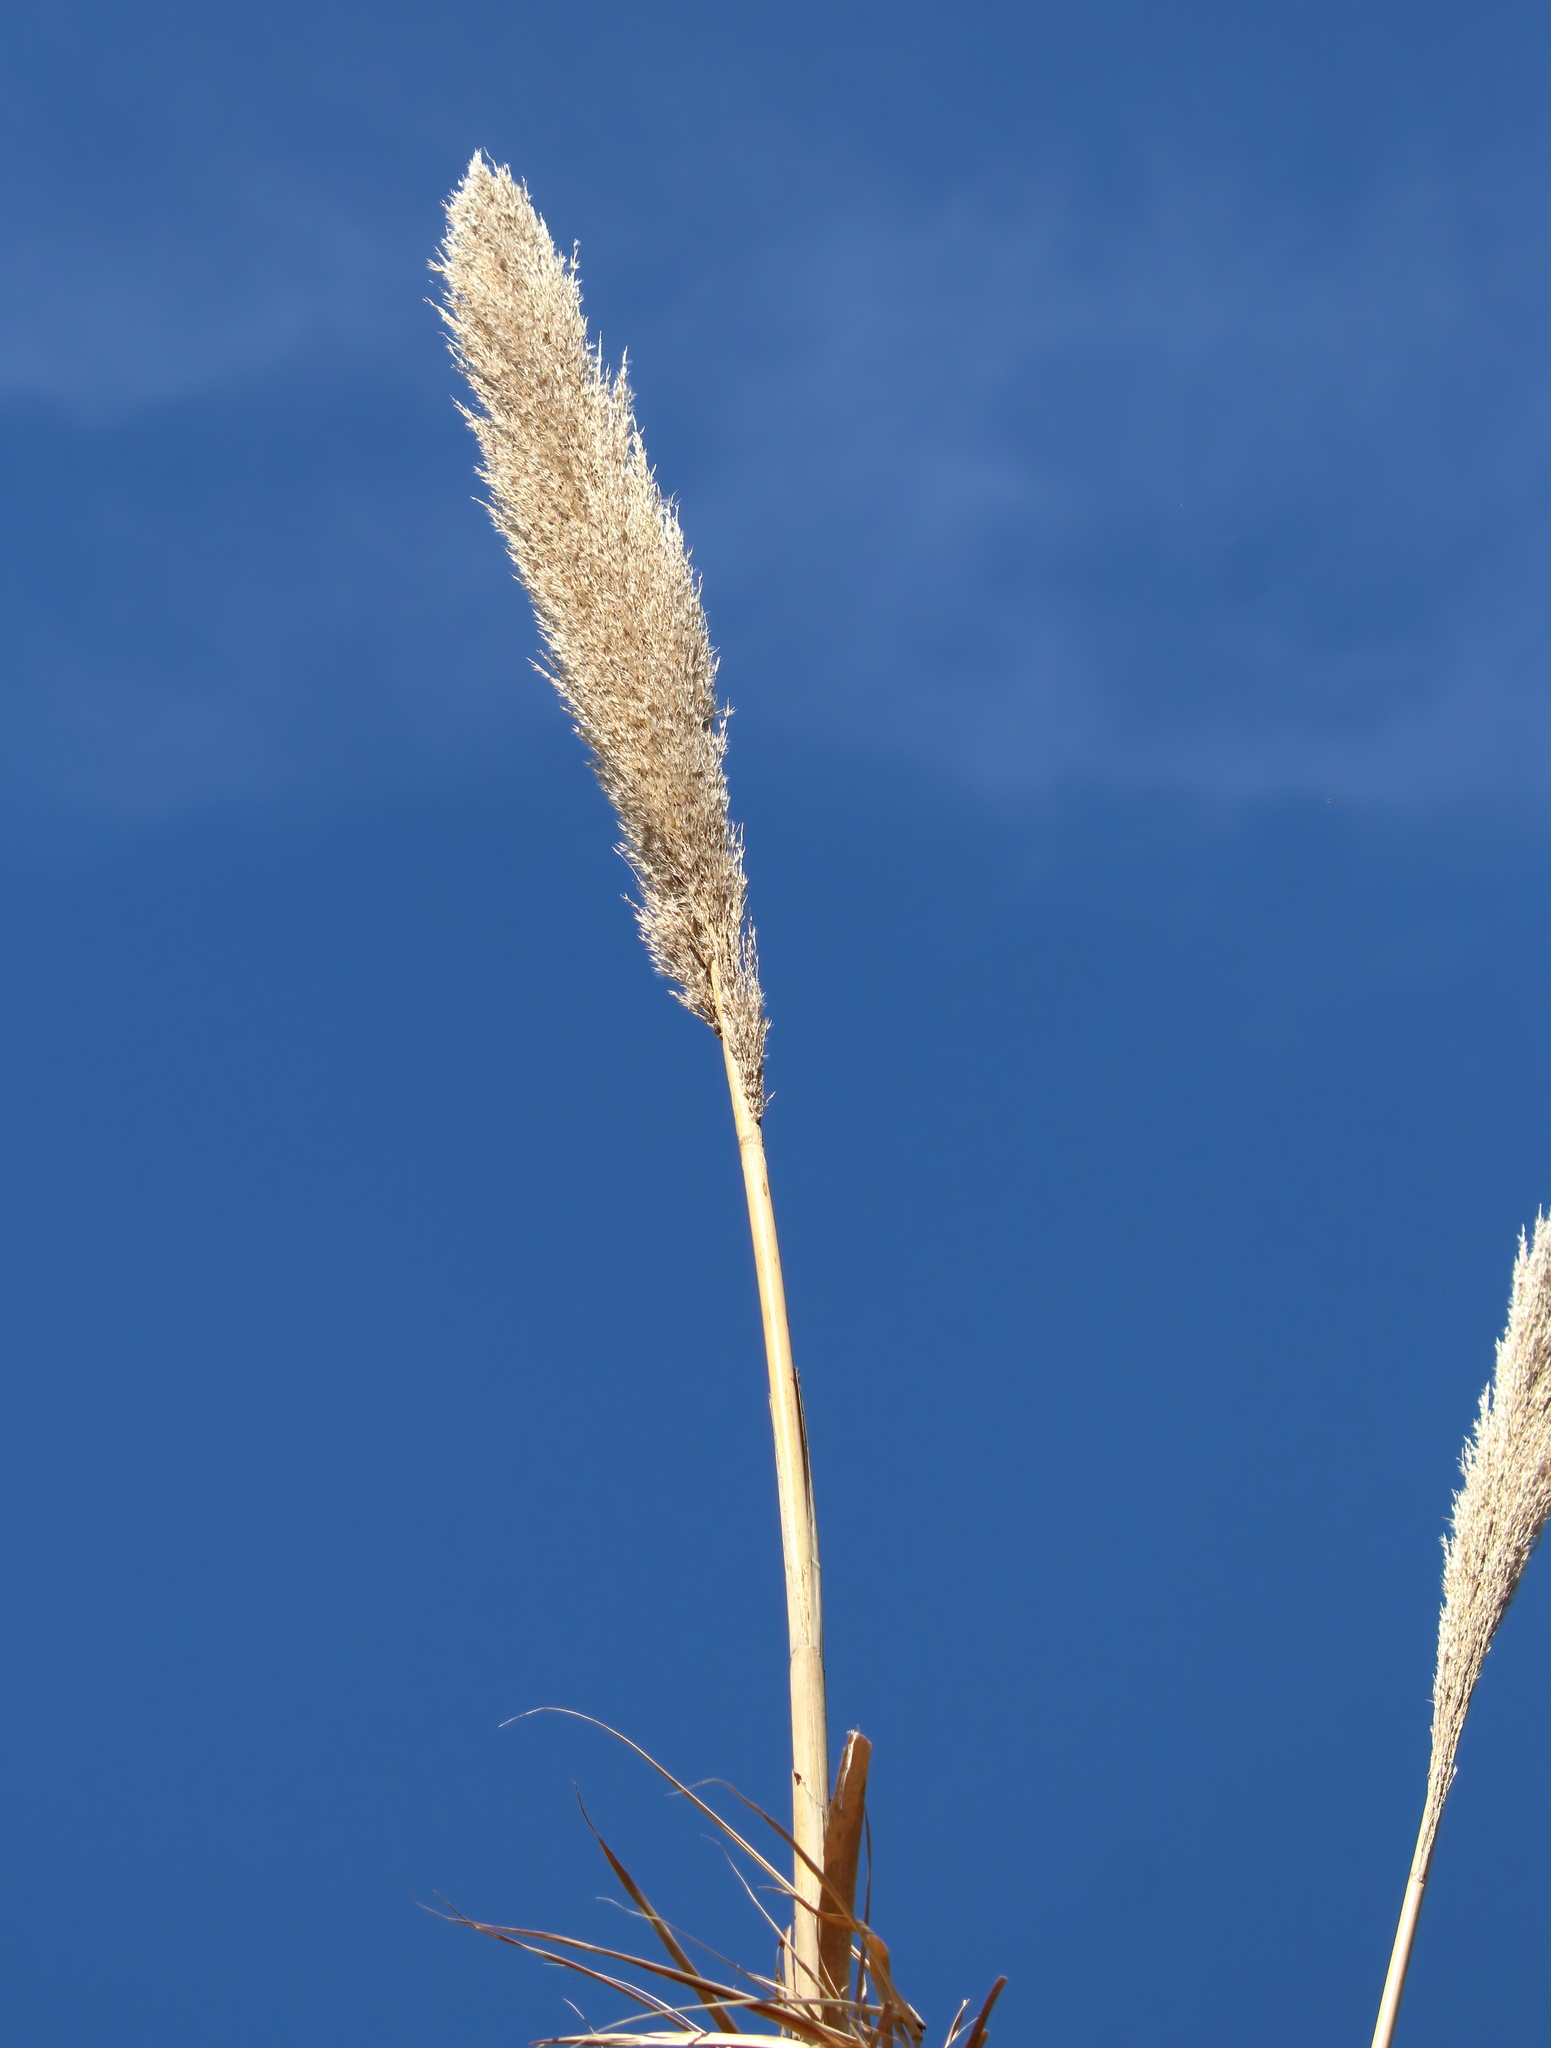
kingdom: Plantae
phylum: Tracheophyta
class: Liliopsida
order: Poales
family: Poaceae
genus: Arundo
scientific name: Arundo donax
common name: Giant reed
